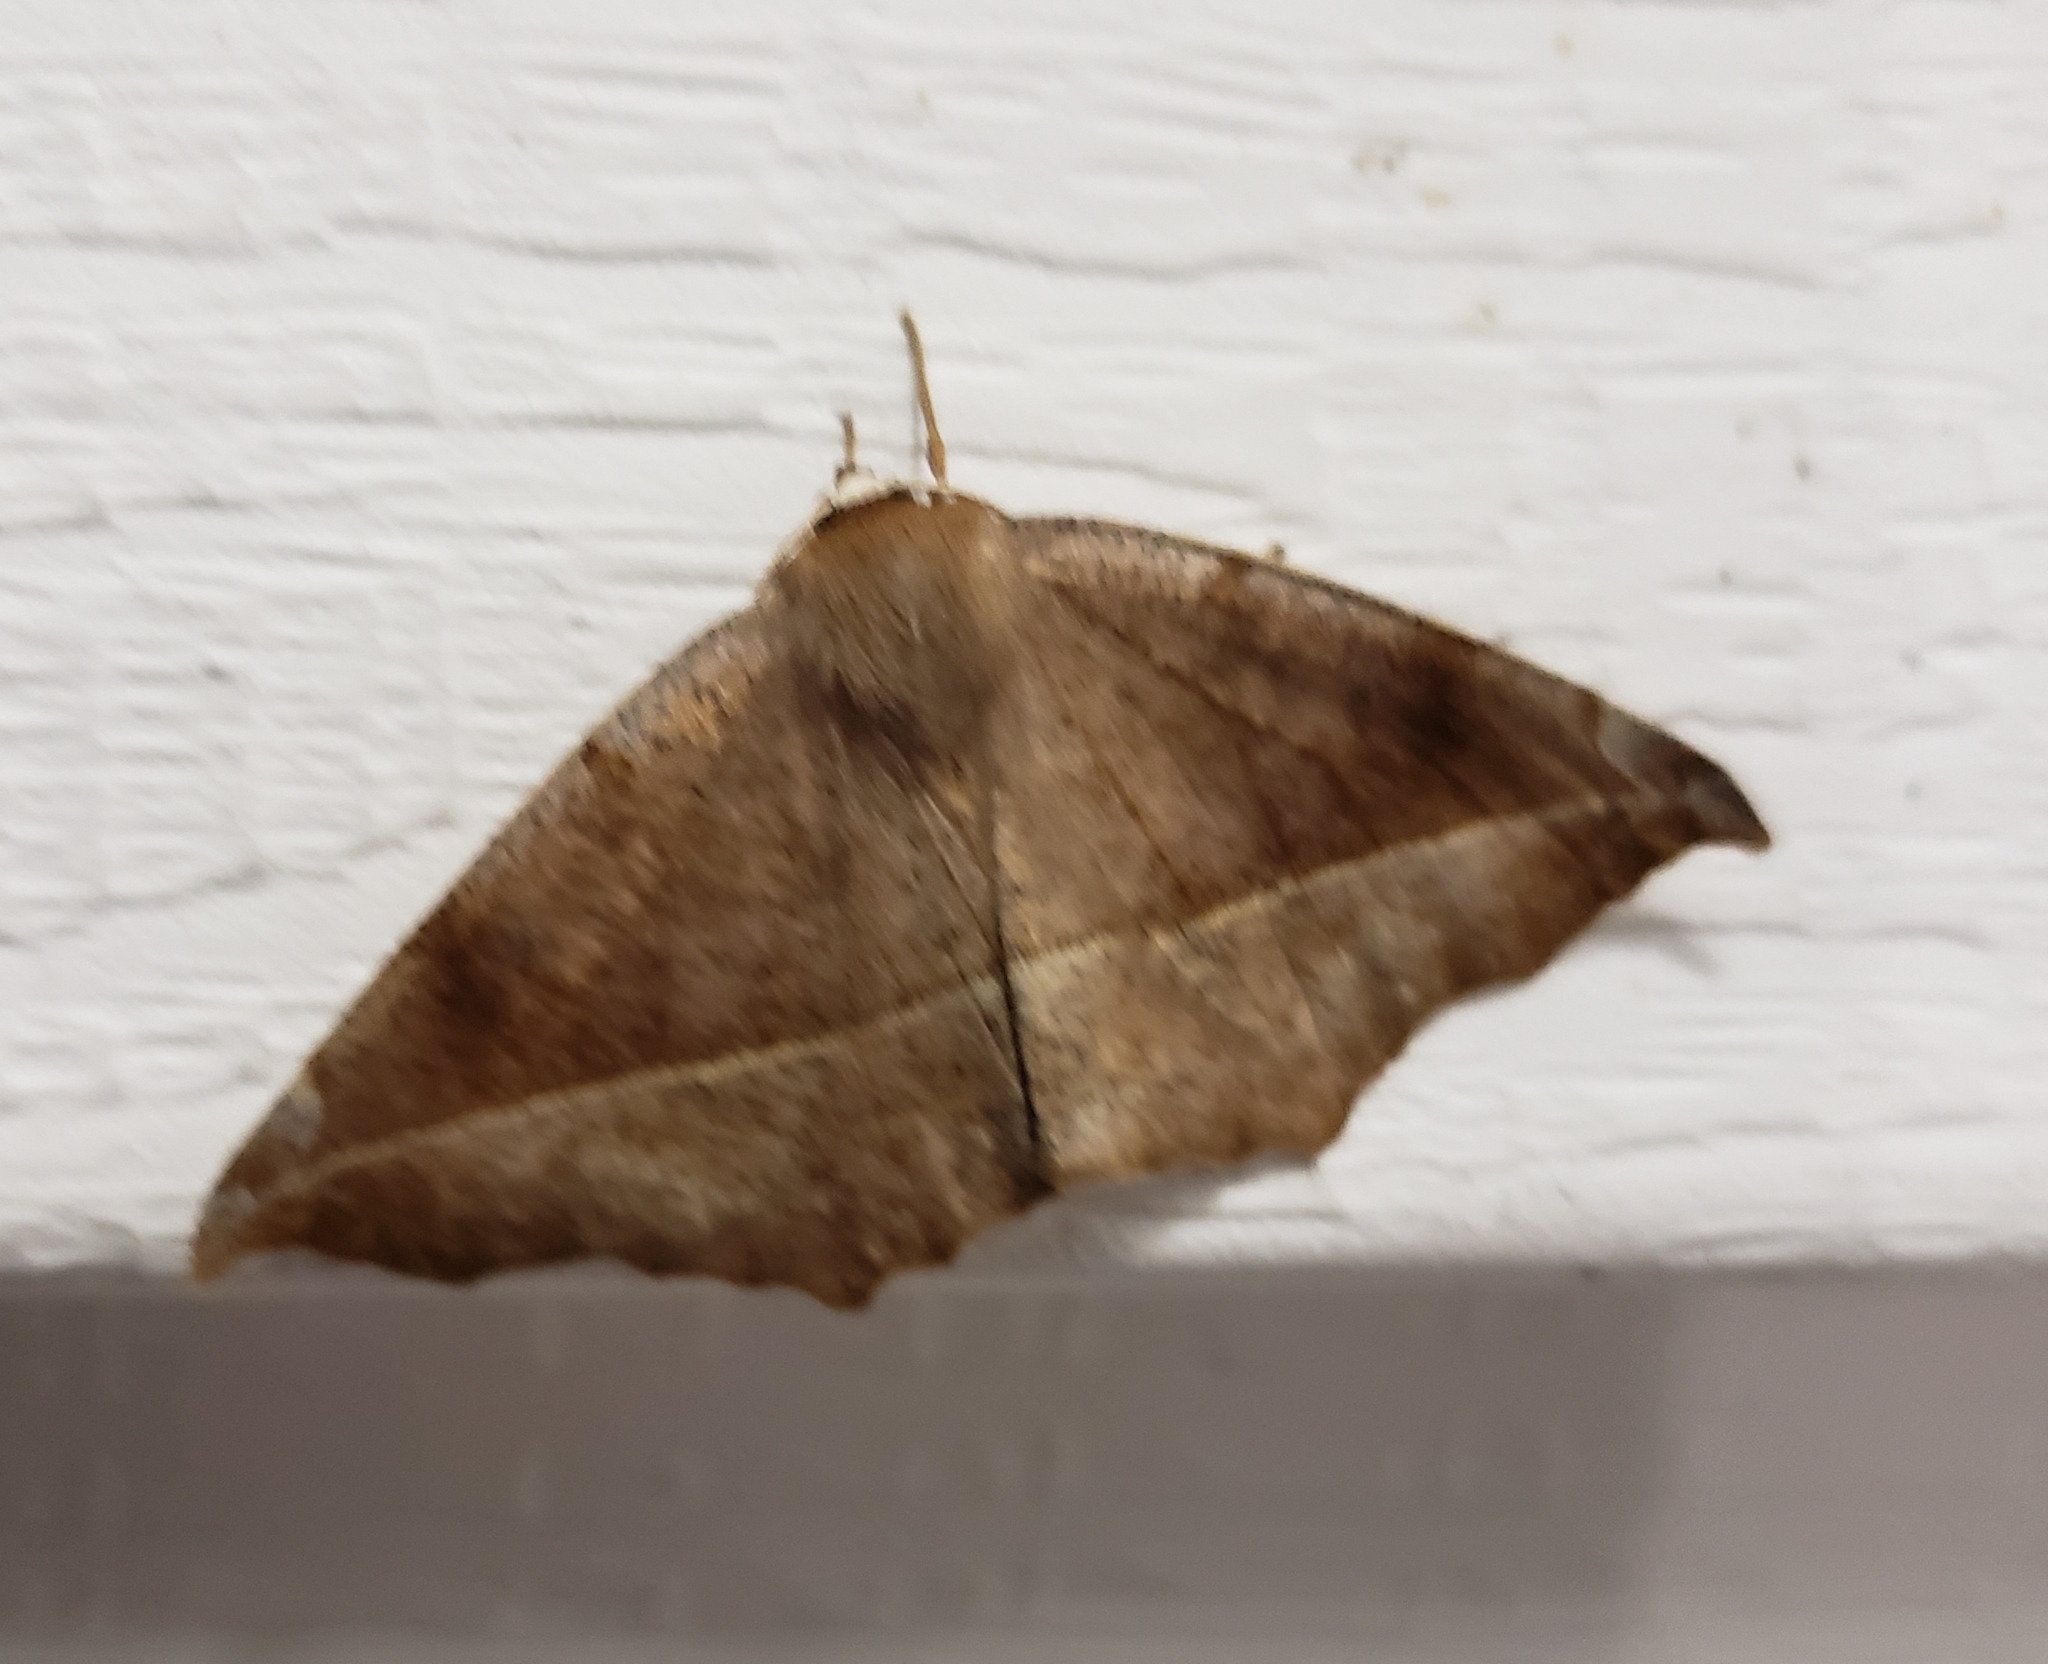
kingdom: Animalia
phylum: Arthropoda
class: Insecta
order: Lepidoptera
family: Geometridae
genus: Eutrapela
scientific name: Eutrapela clemataria
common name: Curved-toothed geometer
